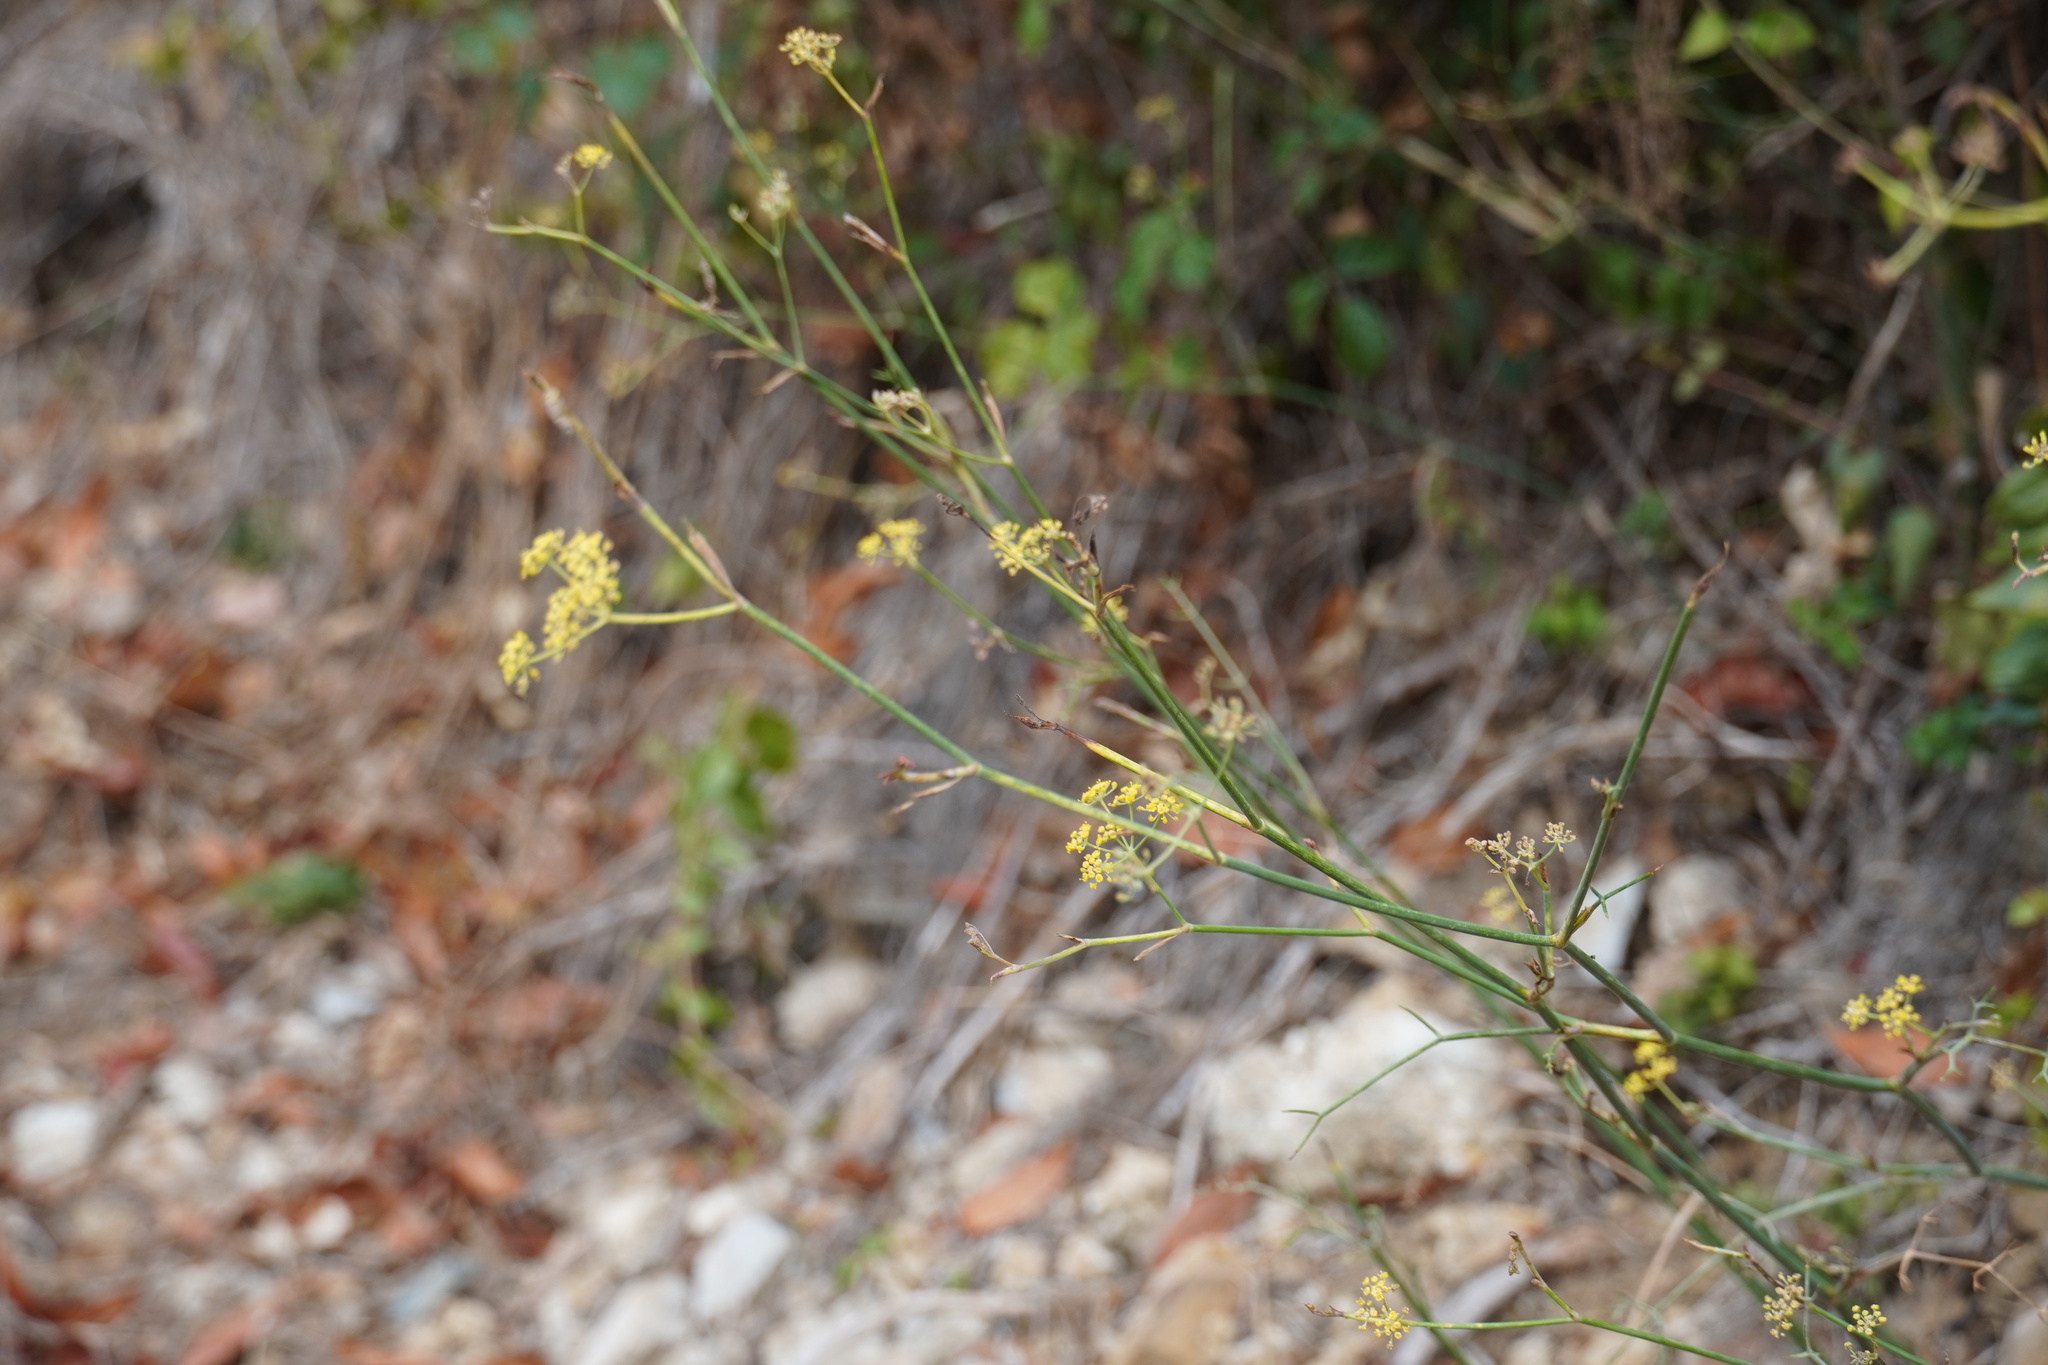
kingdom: Plantae
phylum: Tracheophyta
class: Magnoliopsida
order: Apiales
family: Apiaceae
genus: Foeniculum
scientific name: Foeniculum vulgare
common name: Fennel
